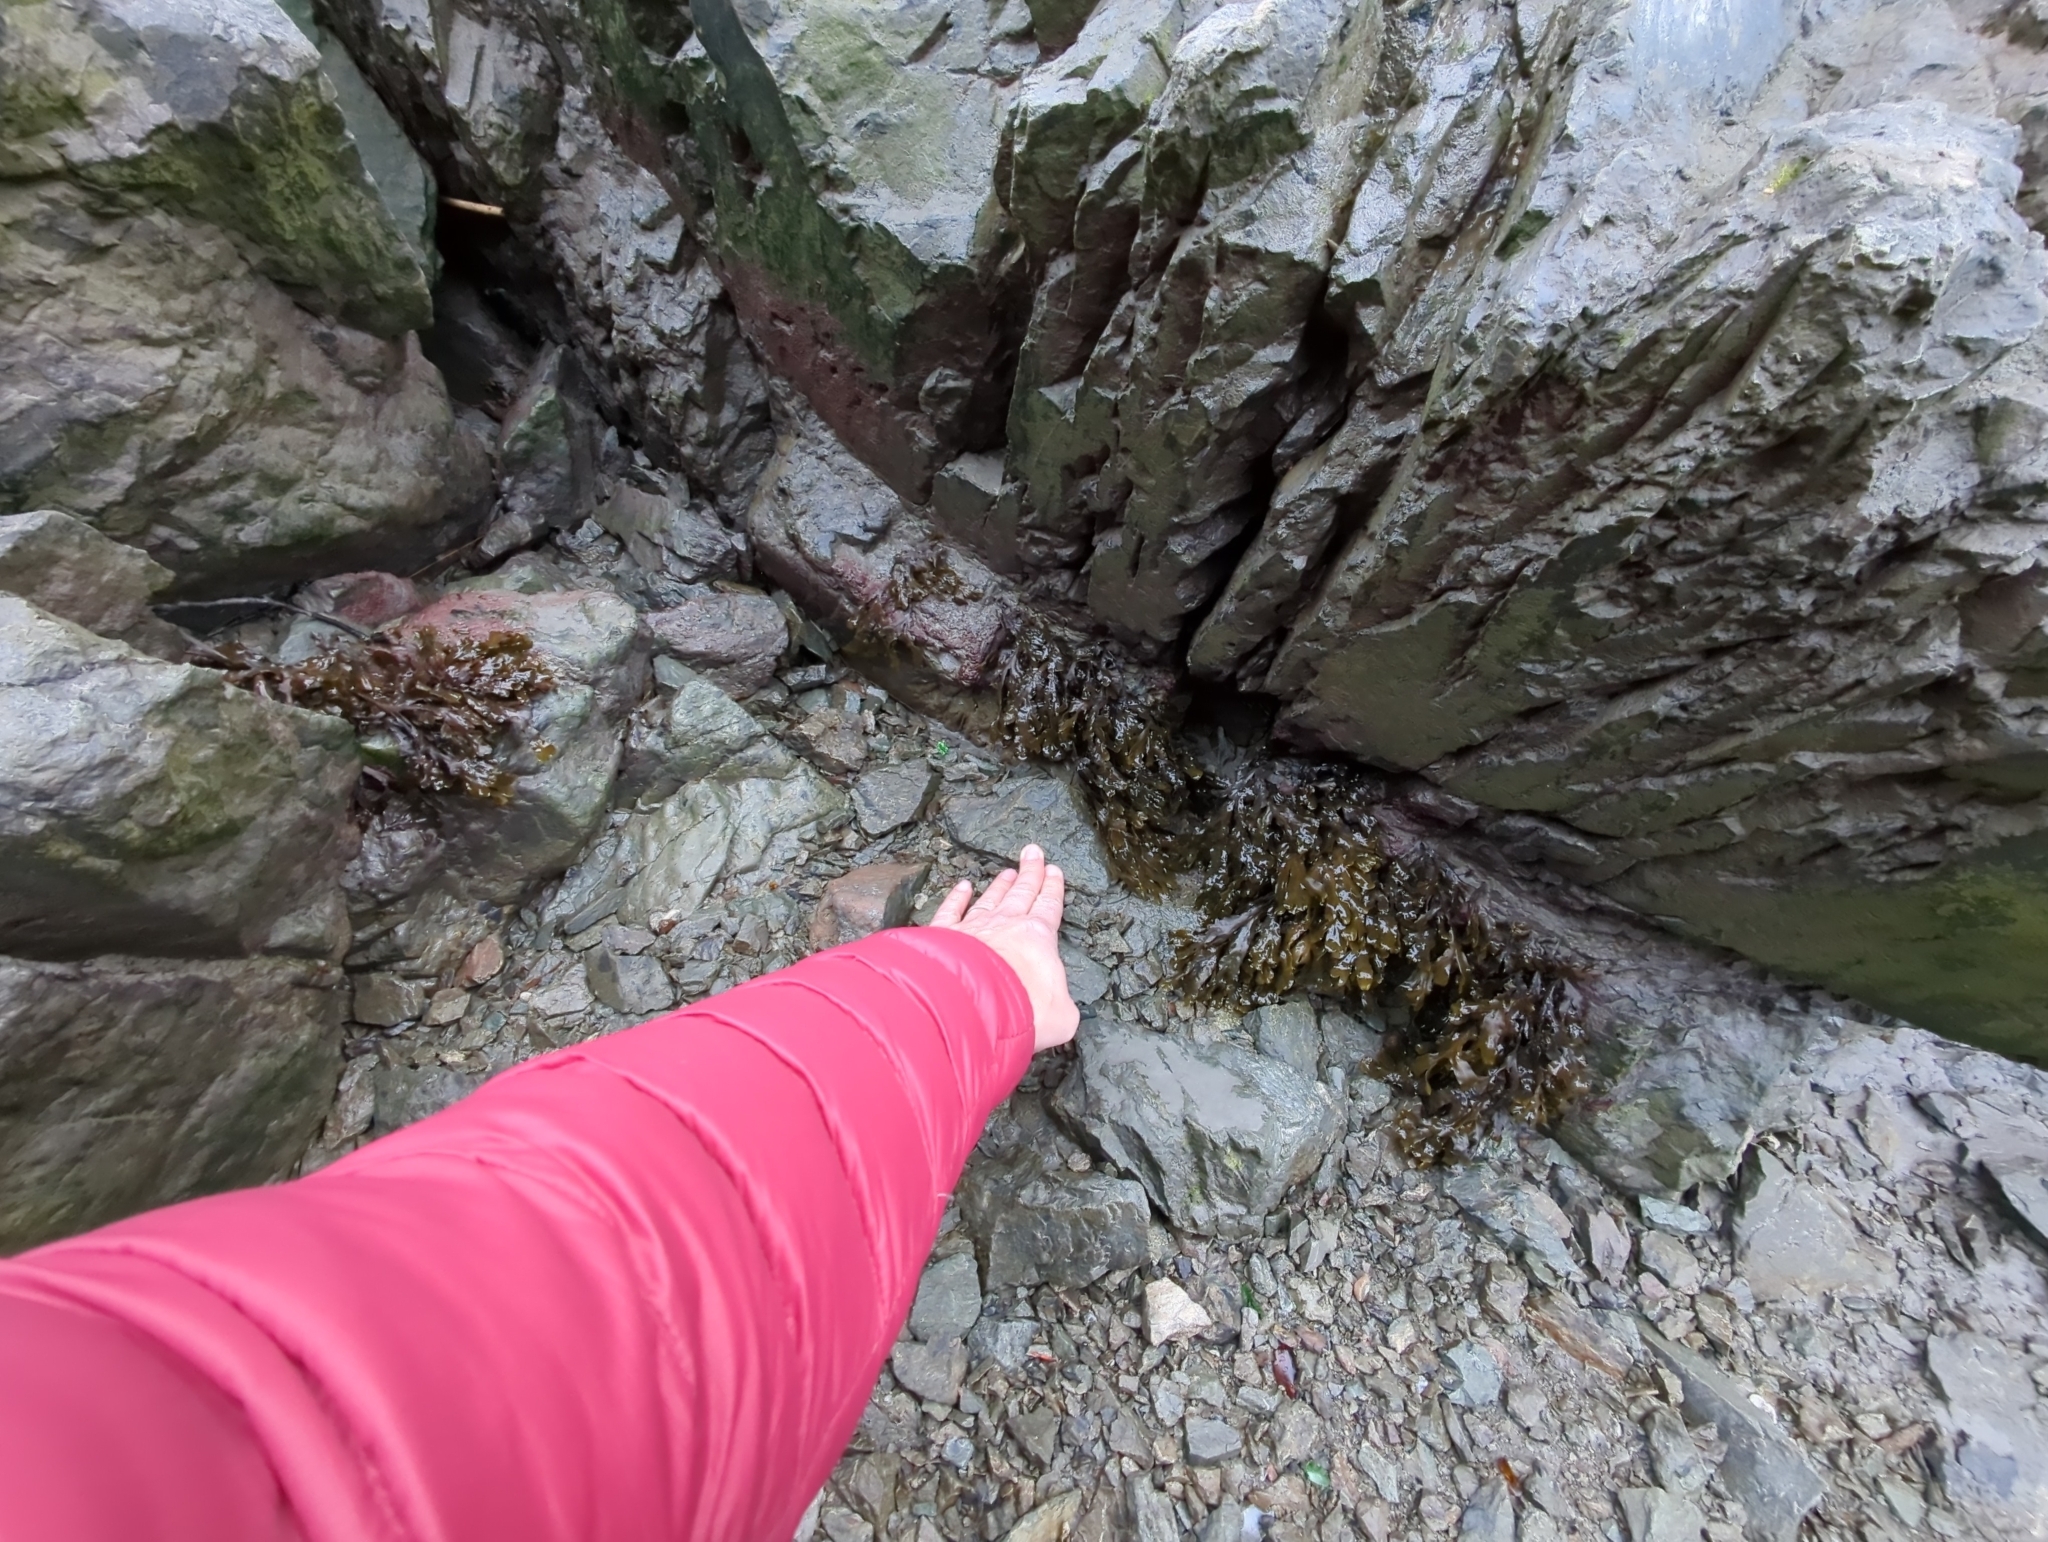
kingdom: Chromista
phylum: Ochrophyta
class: Phaeophyceae
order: Fucales
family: Fucaceae
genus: Fucus
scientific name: Fucus distichus
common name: Rockweed
